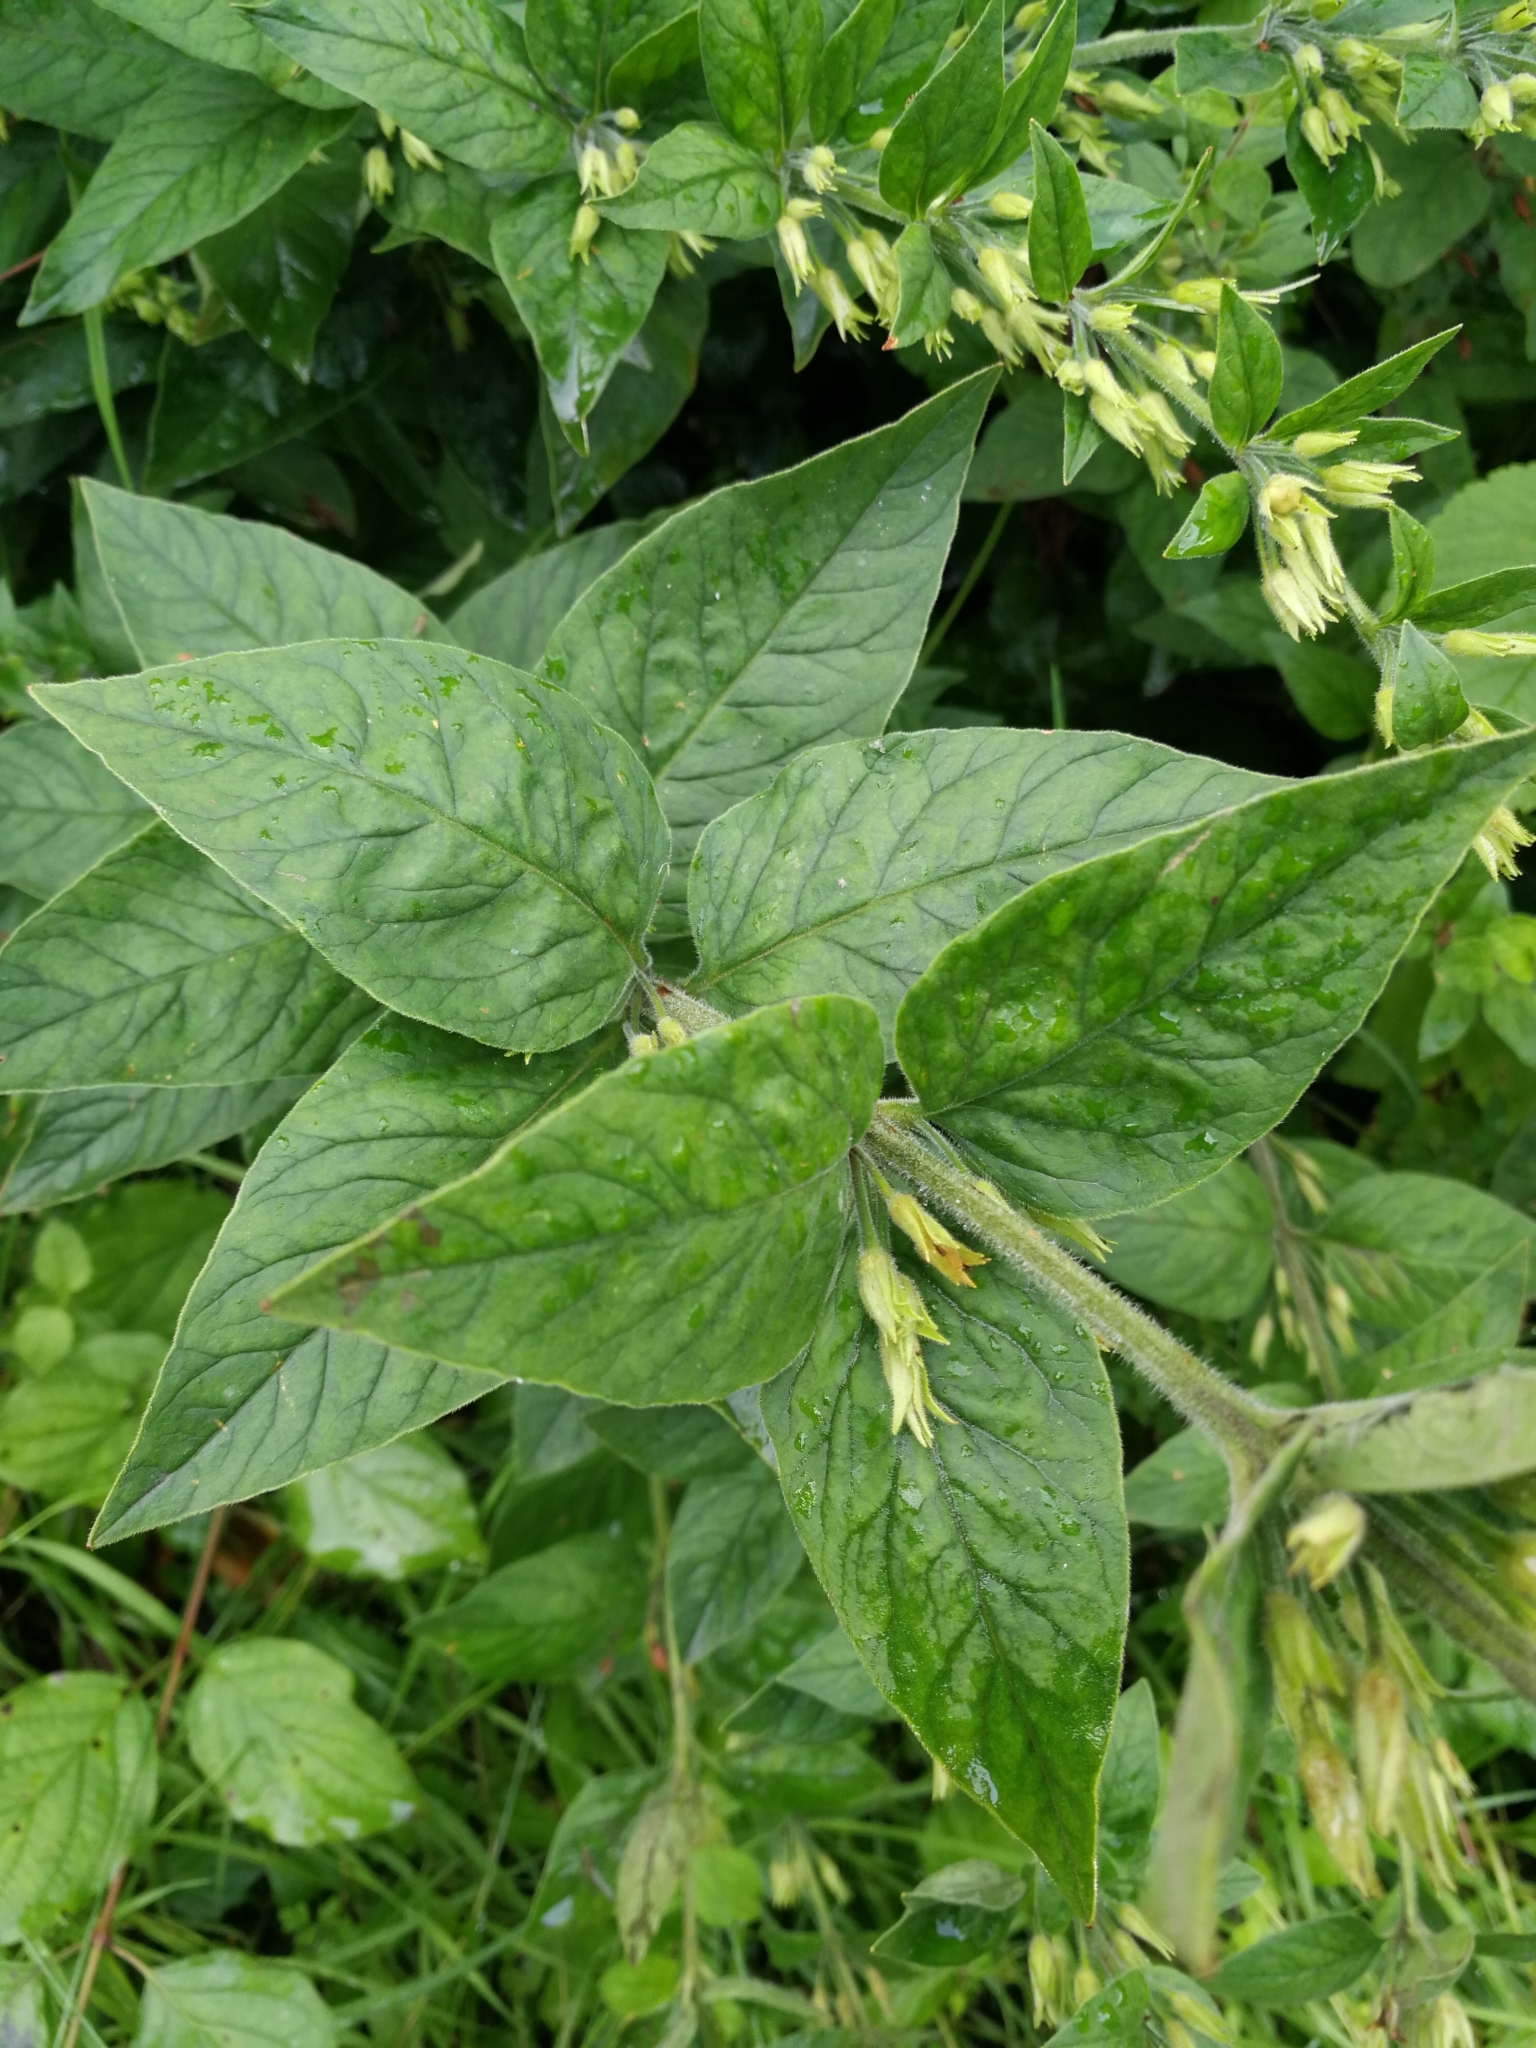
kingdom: Plantae
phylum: Tracheophyta
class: Magnoliopsida
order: Ericales
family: Primulaceae
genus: Lysimachia
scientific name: Lysimachia punctata
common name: Dotted loosestrife
